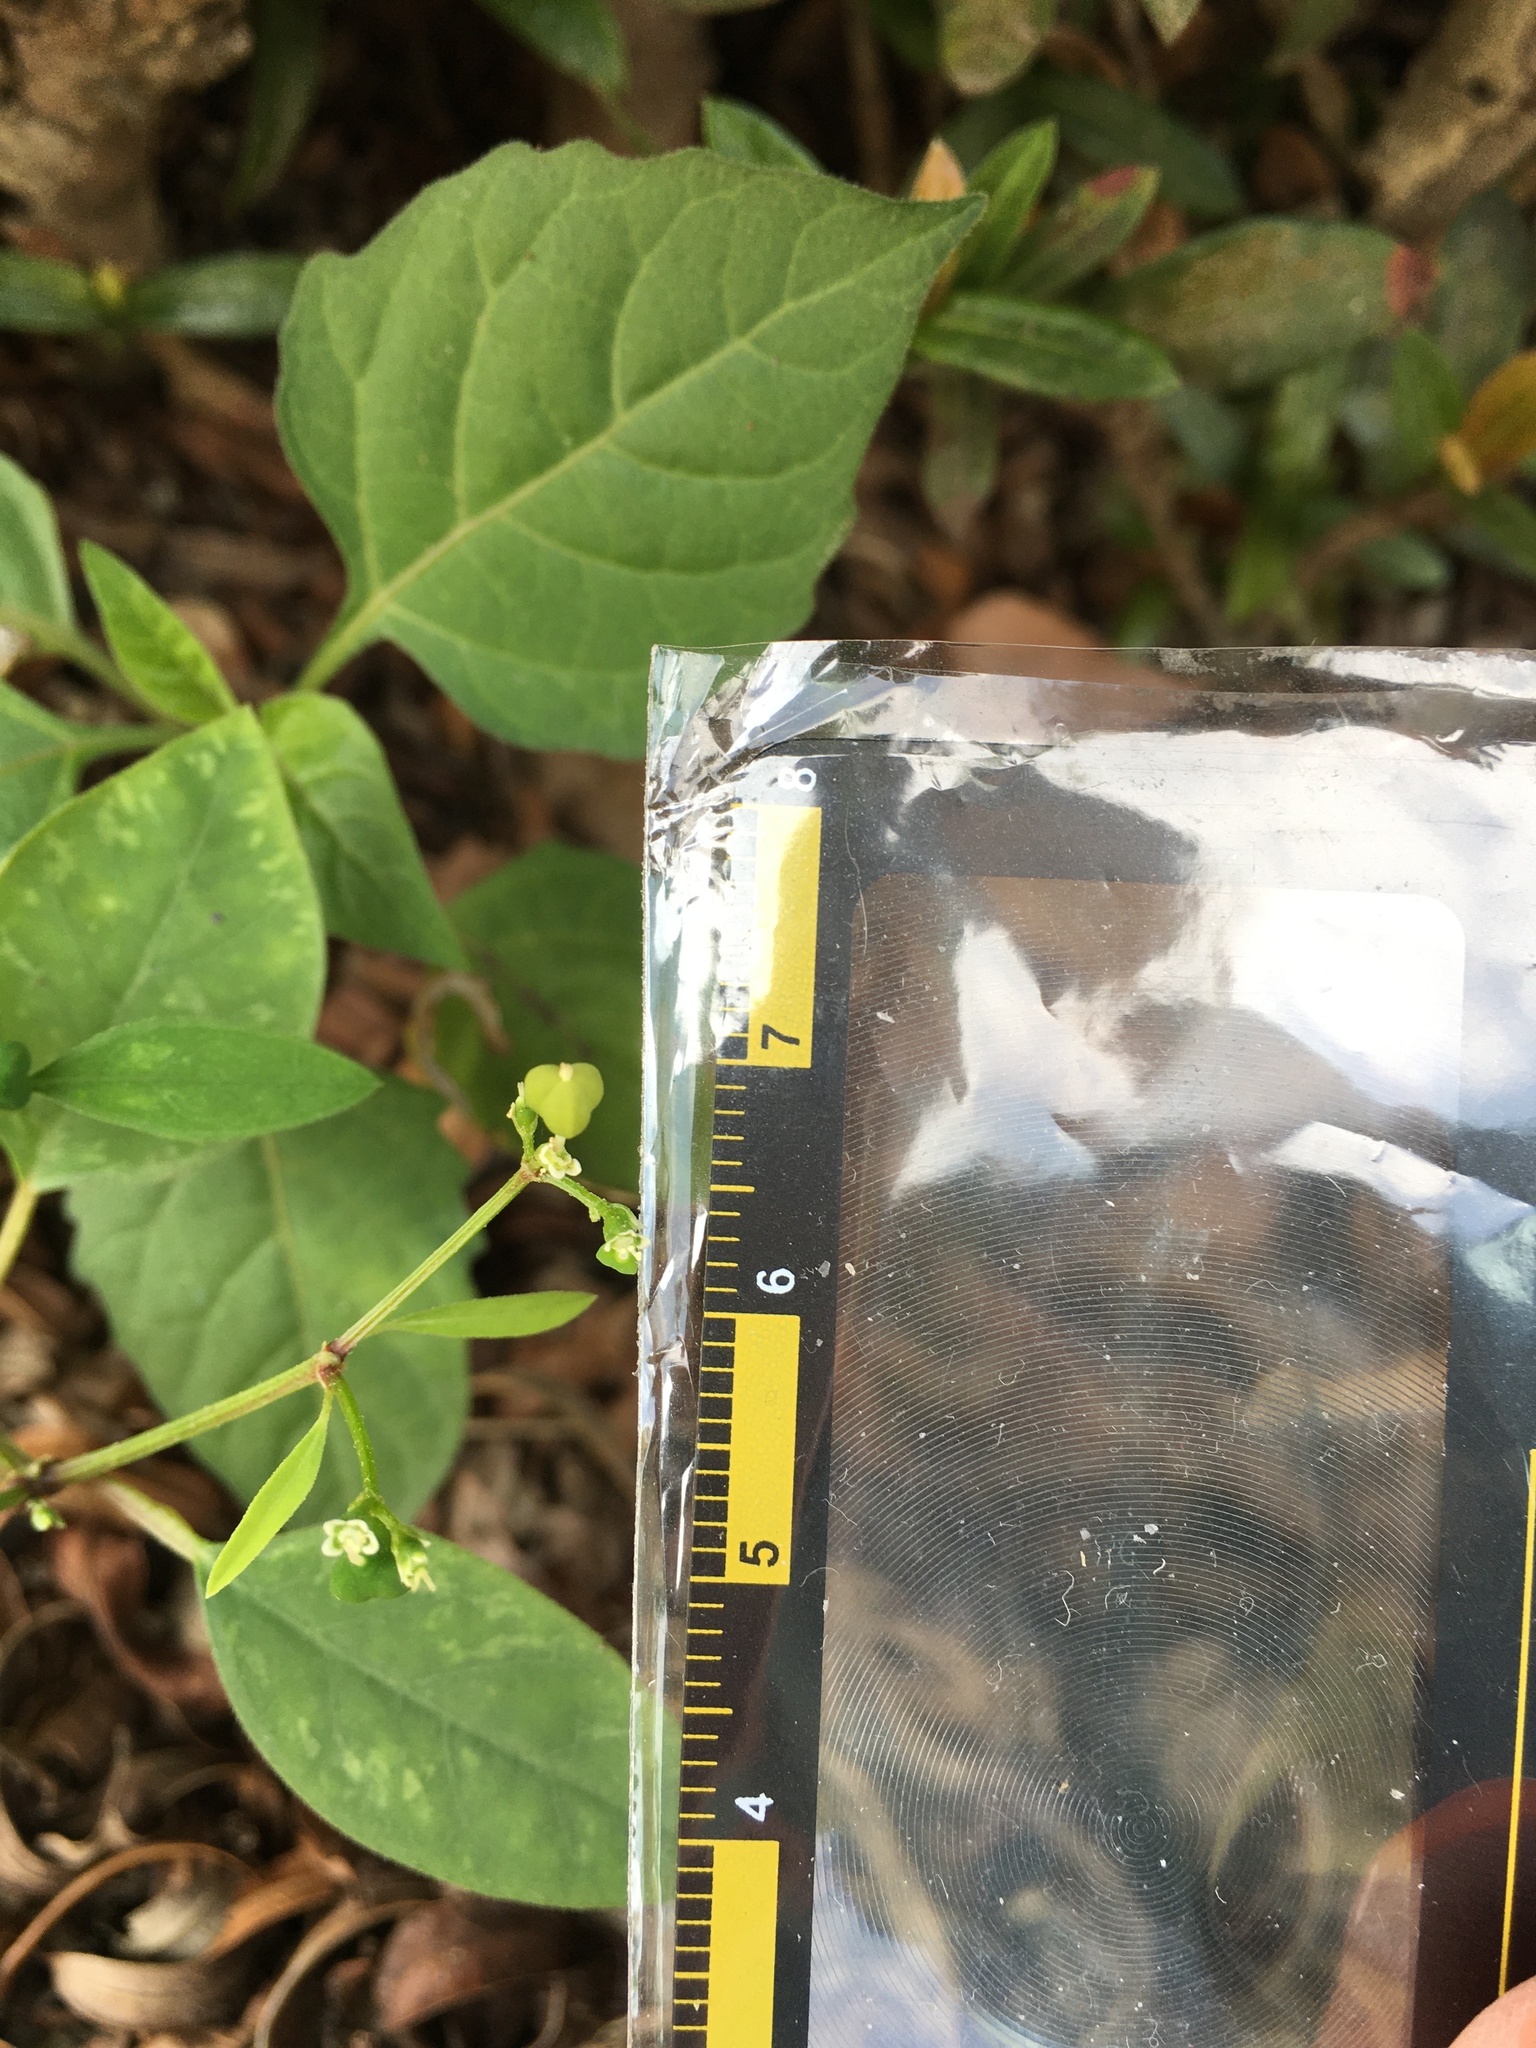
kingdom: Plantae
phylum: Tracheophyta
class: Magnoliopsida
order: Malpighiales
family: Euphorbiaceae
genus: Euphorbia
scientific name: Euphorbia graminea
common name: Grassleaf spurge
